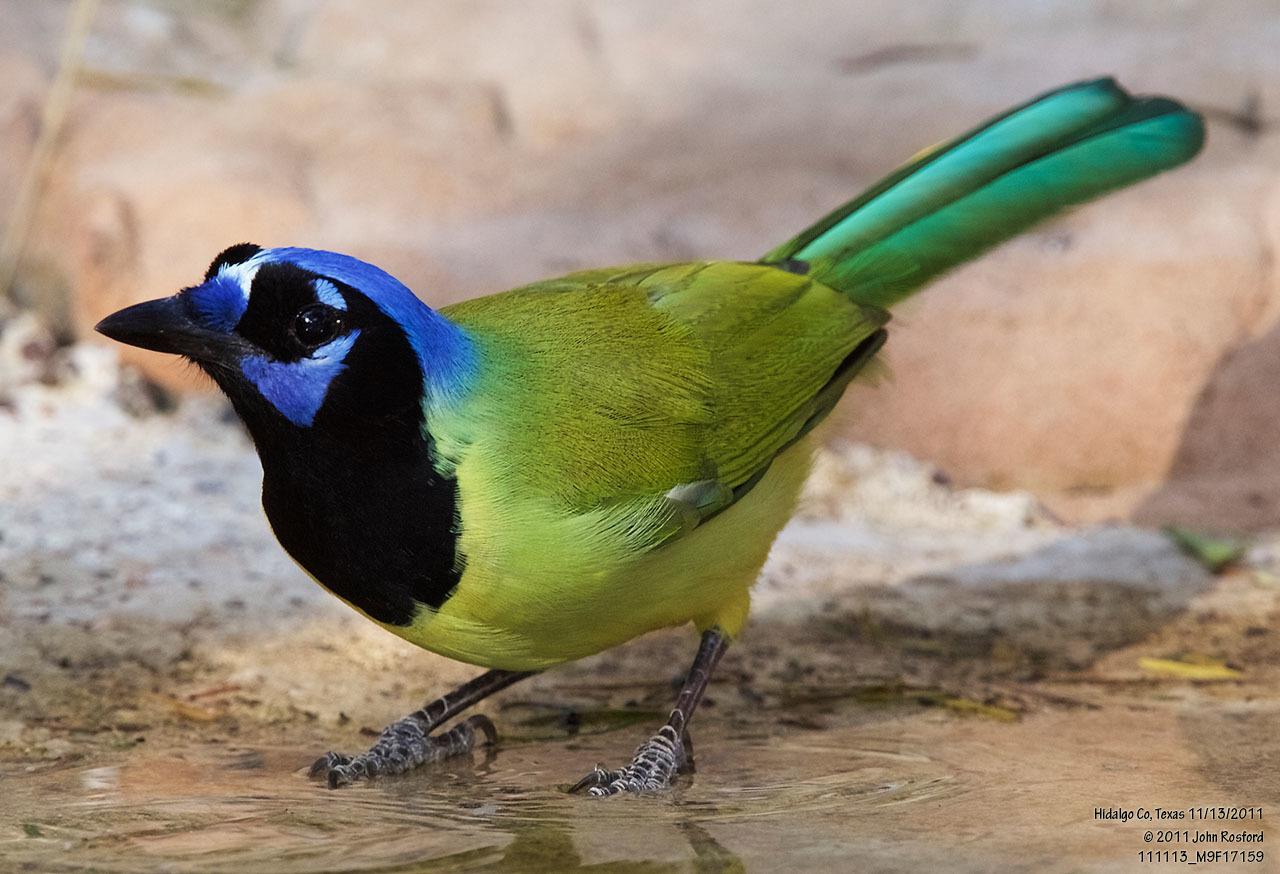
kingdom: Animalia
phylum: Chordata
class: Aves
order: Passeriformes
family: Corvidae
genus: Cyanocorax
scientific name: Cyanocorax yncas
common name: Green jay
